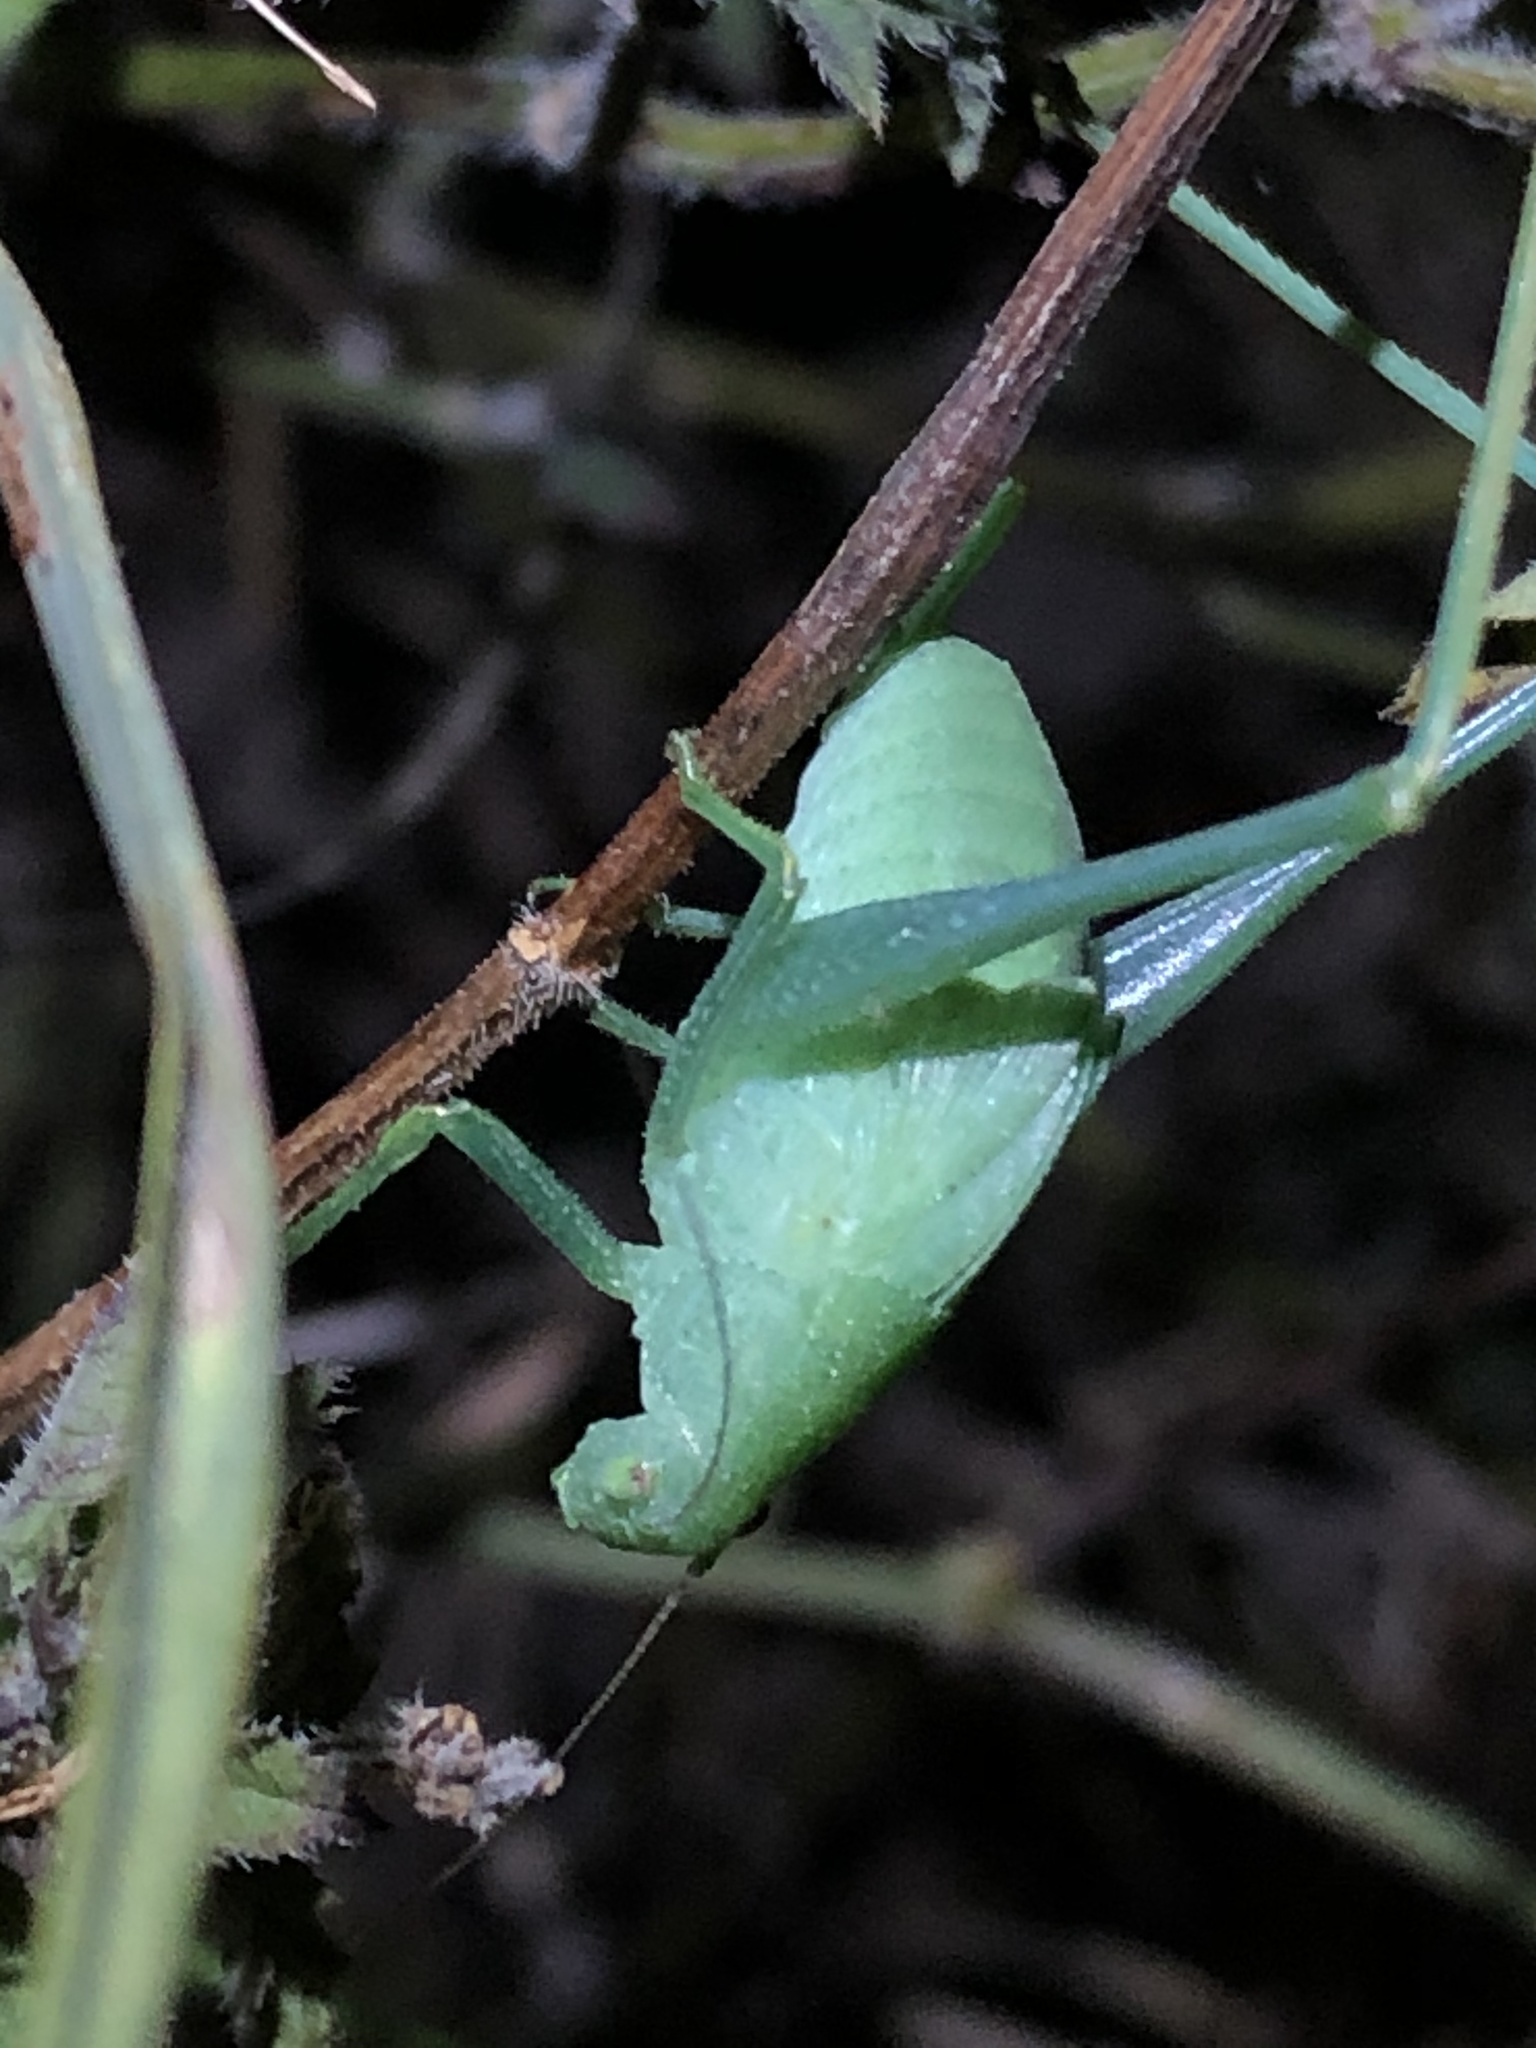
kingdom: Animalia
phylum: Arthropoda
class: Insecta
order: Orthoptera
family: Tettigoniidae
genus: Amblycorypha
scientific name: Amblycorypha rivograndis
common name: Rio grande virtuoso katydid
